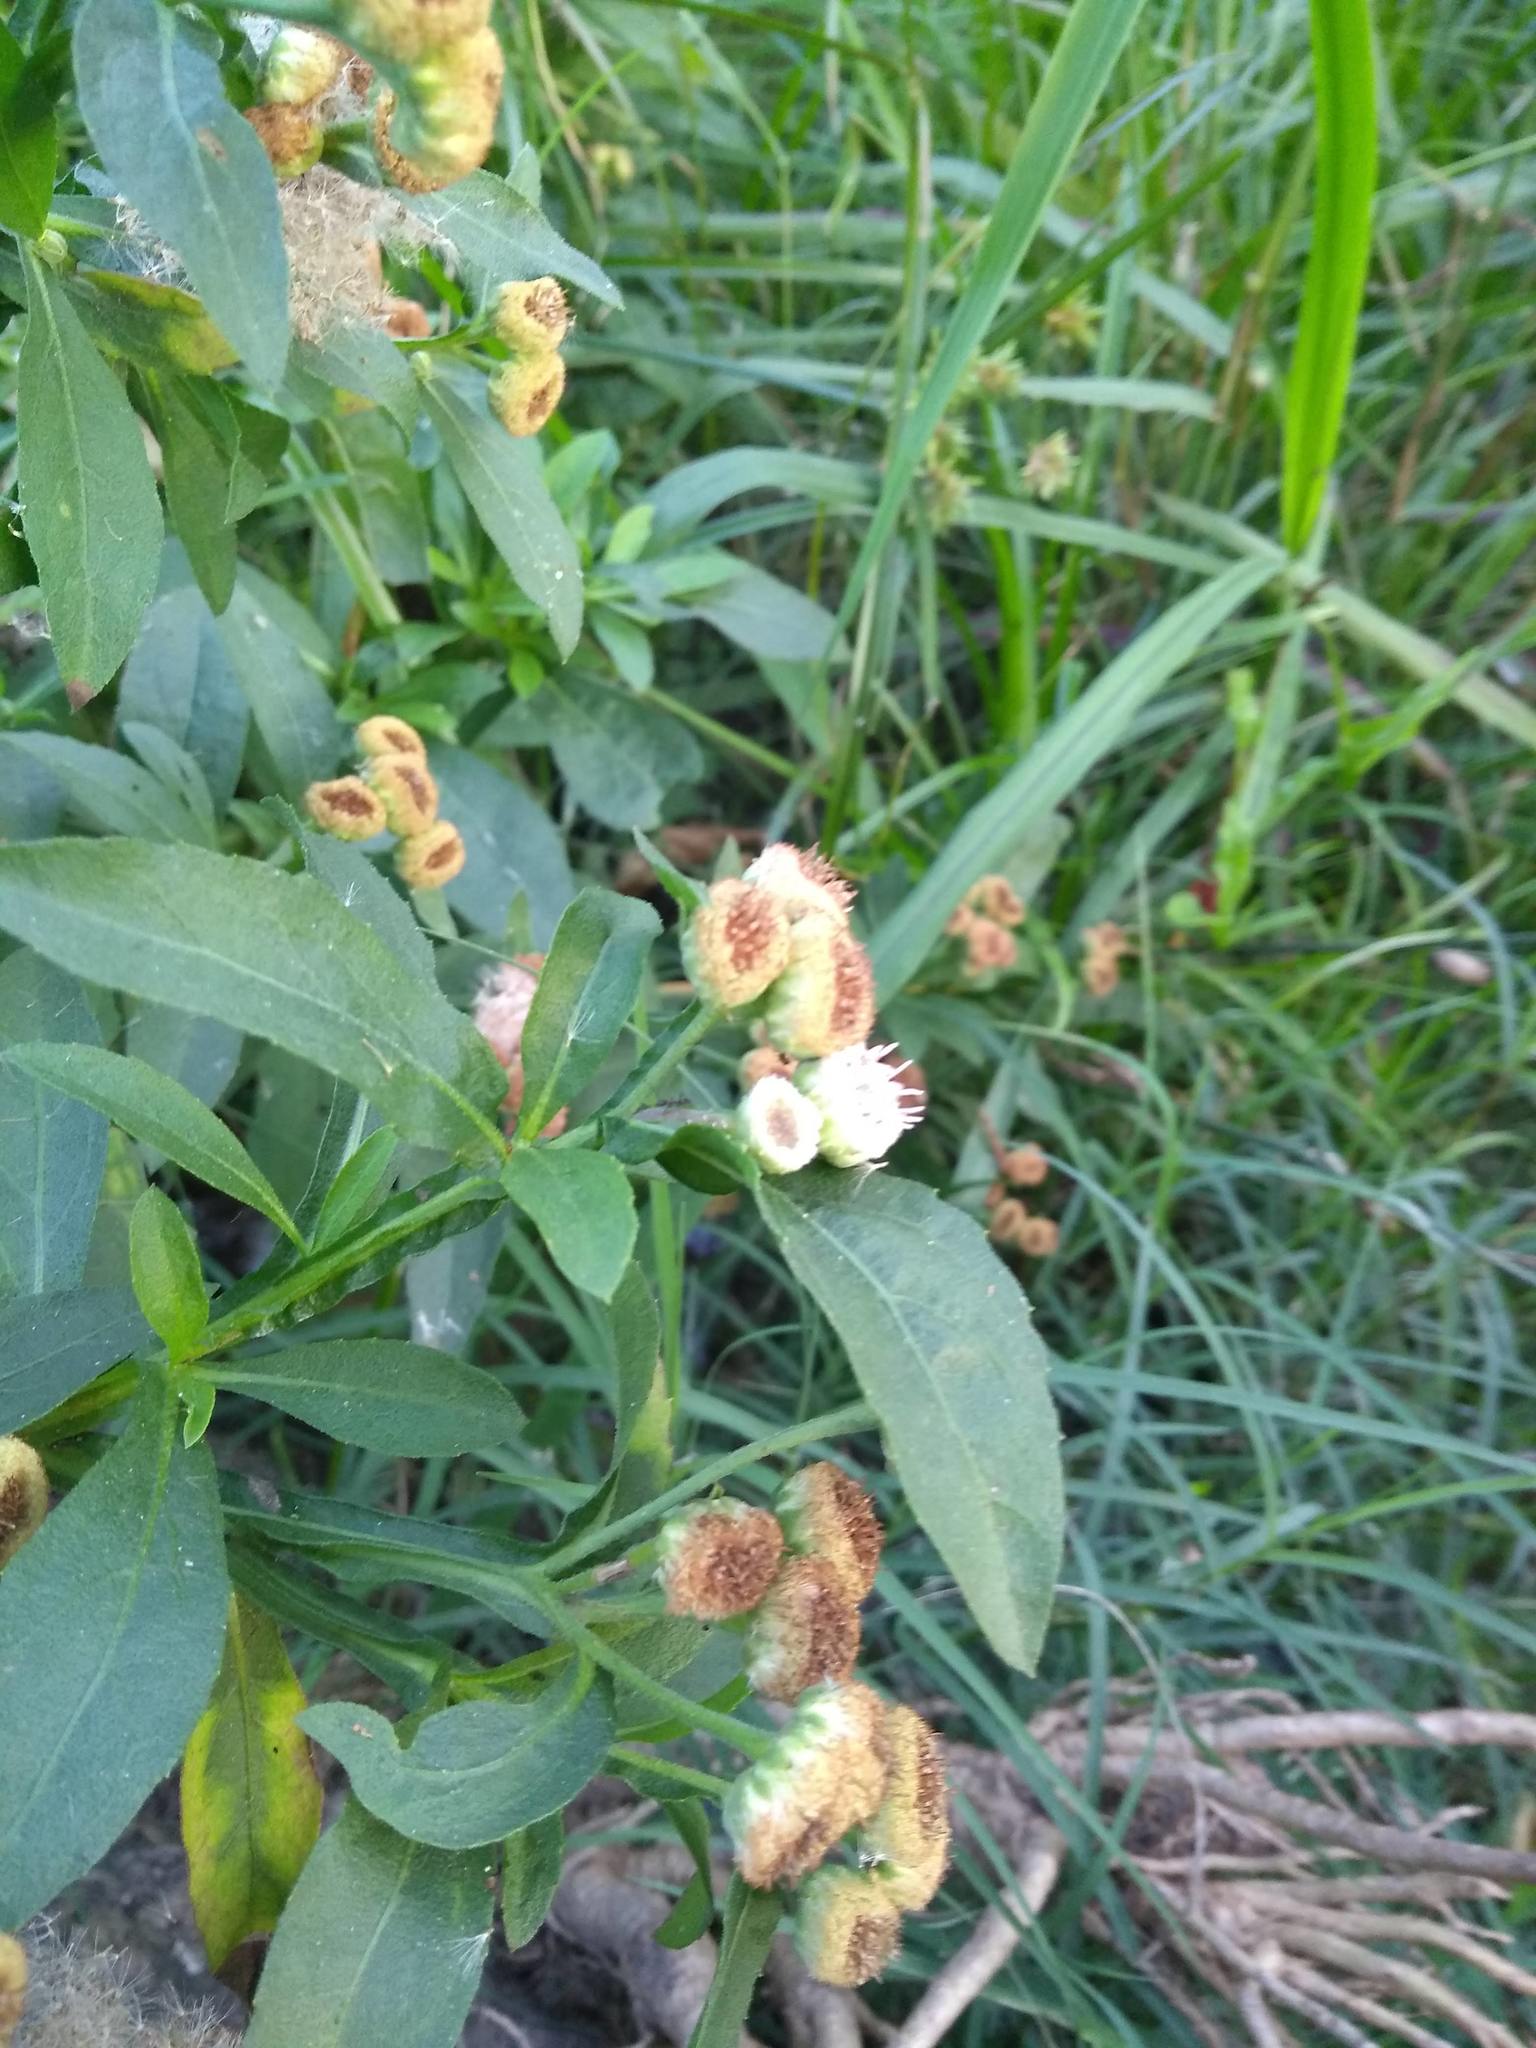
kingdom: Plantae
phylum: Tracheophyta
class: Magnoliopsida
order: Asterales
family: Asteraceae
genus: Pluchea
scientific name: Pluchea sagittalis
